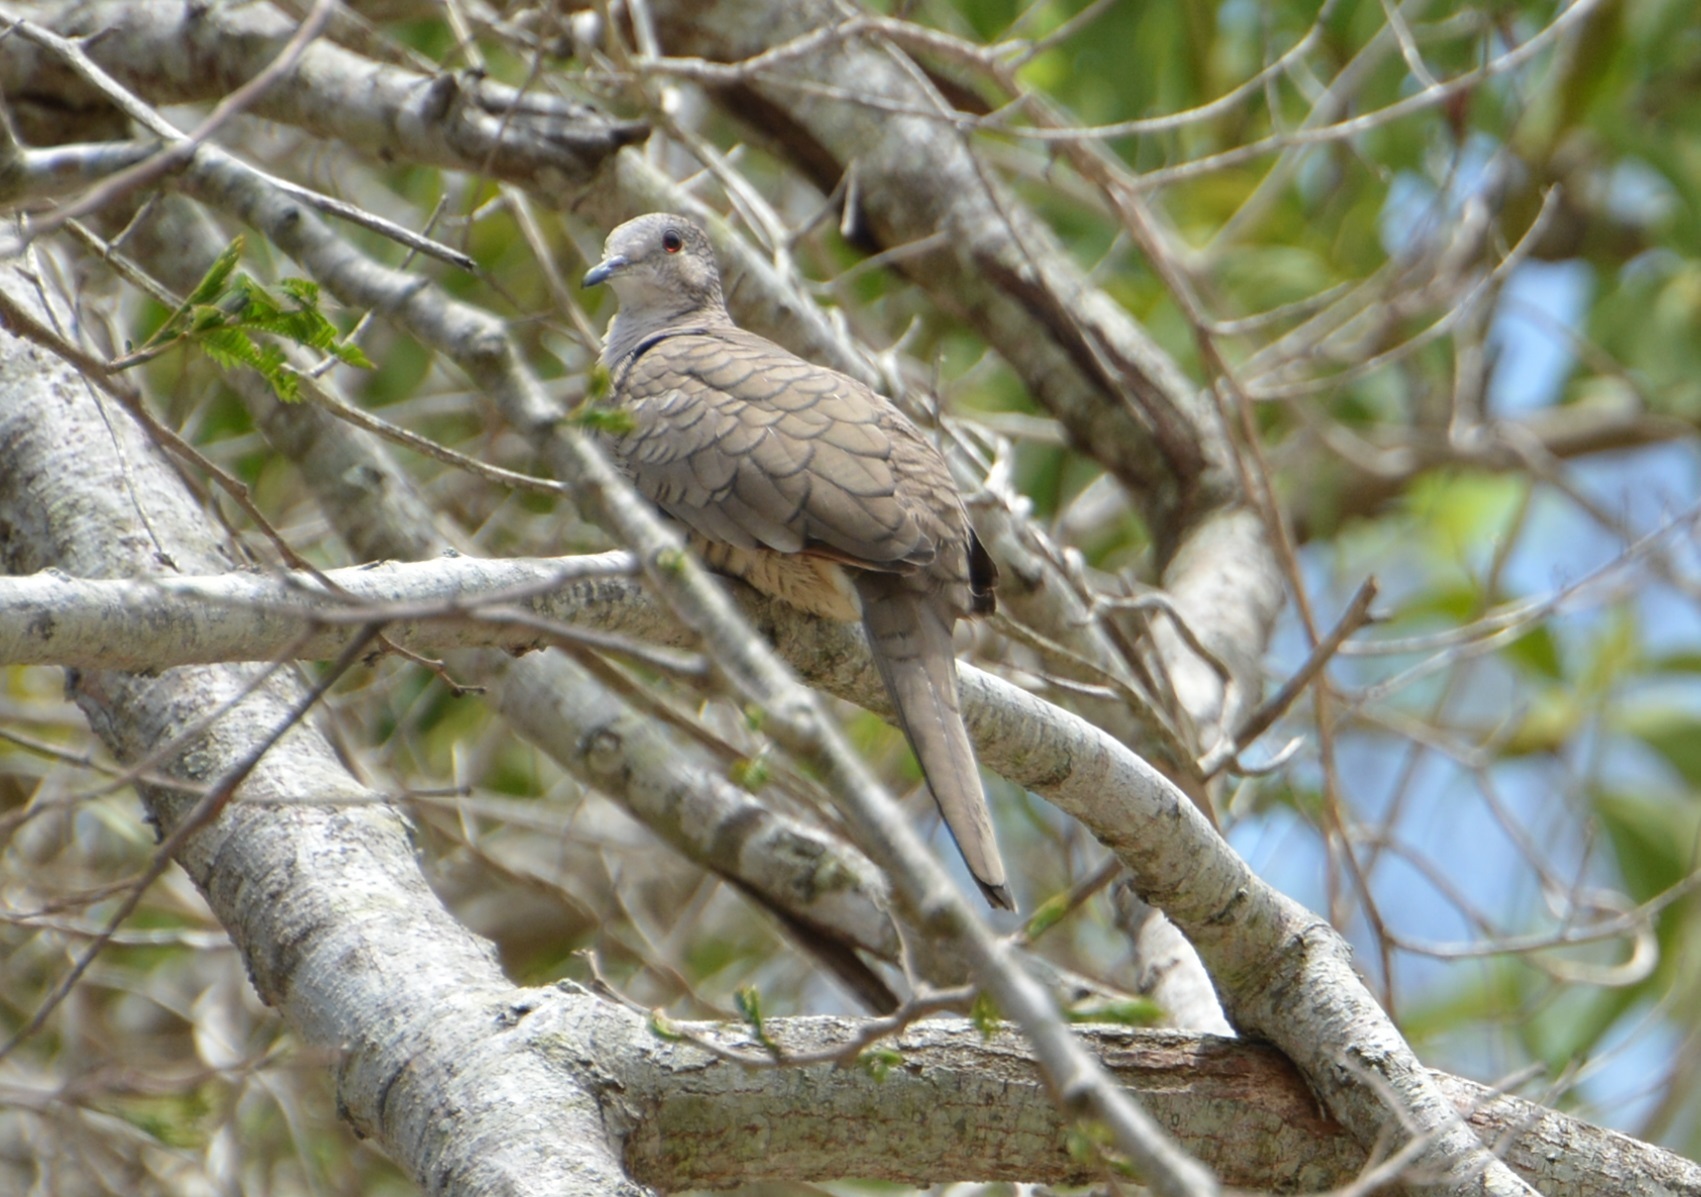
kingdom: Animalia
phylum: Chordata
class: Aves
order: Columbiformes
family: Columbidae
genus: Columbina
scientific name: Columbina inca
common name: Inca dove
